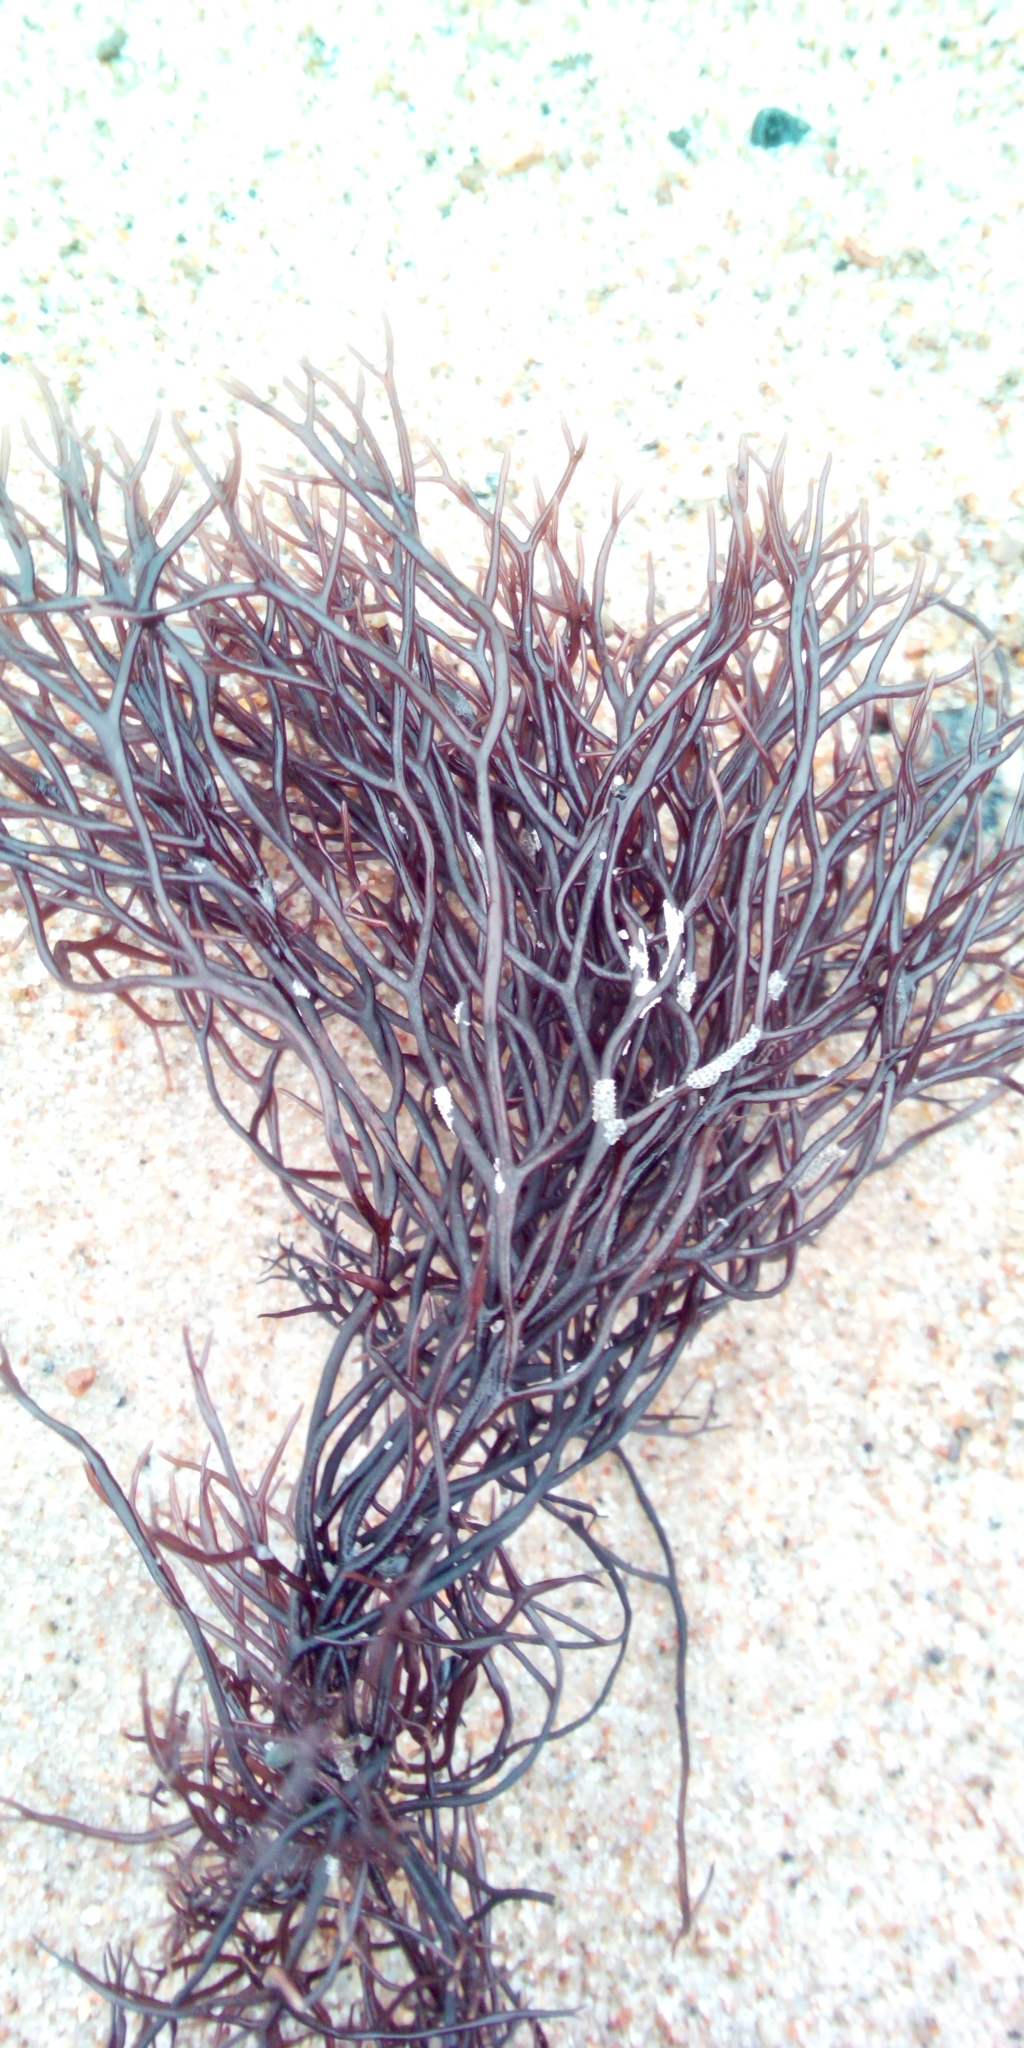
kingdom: Plantae
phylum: Rhodophyta
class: Florideophyceae
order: Gigartinales
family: Furcellariaceae
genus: Furcellaria
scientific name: Furcellaria lumbricalis
